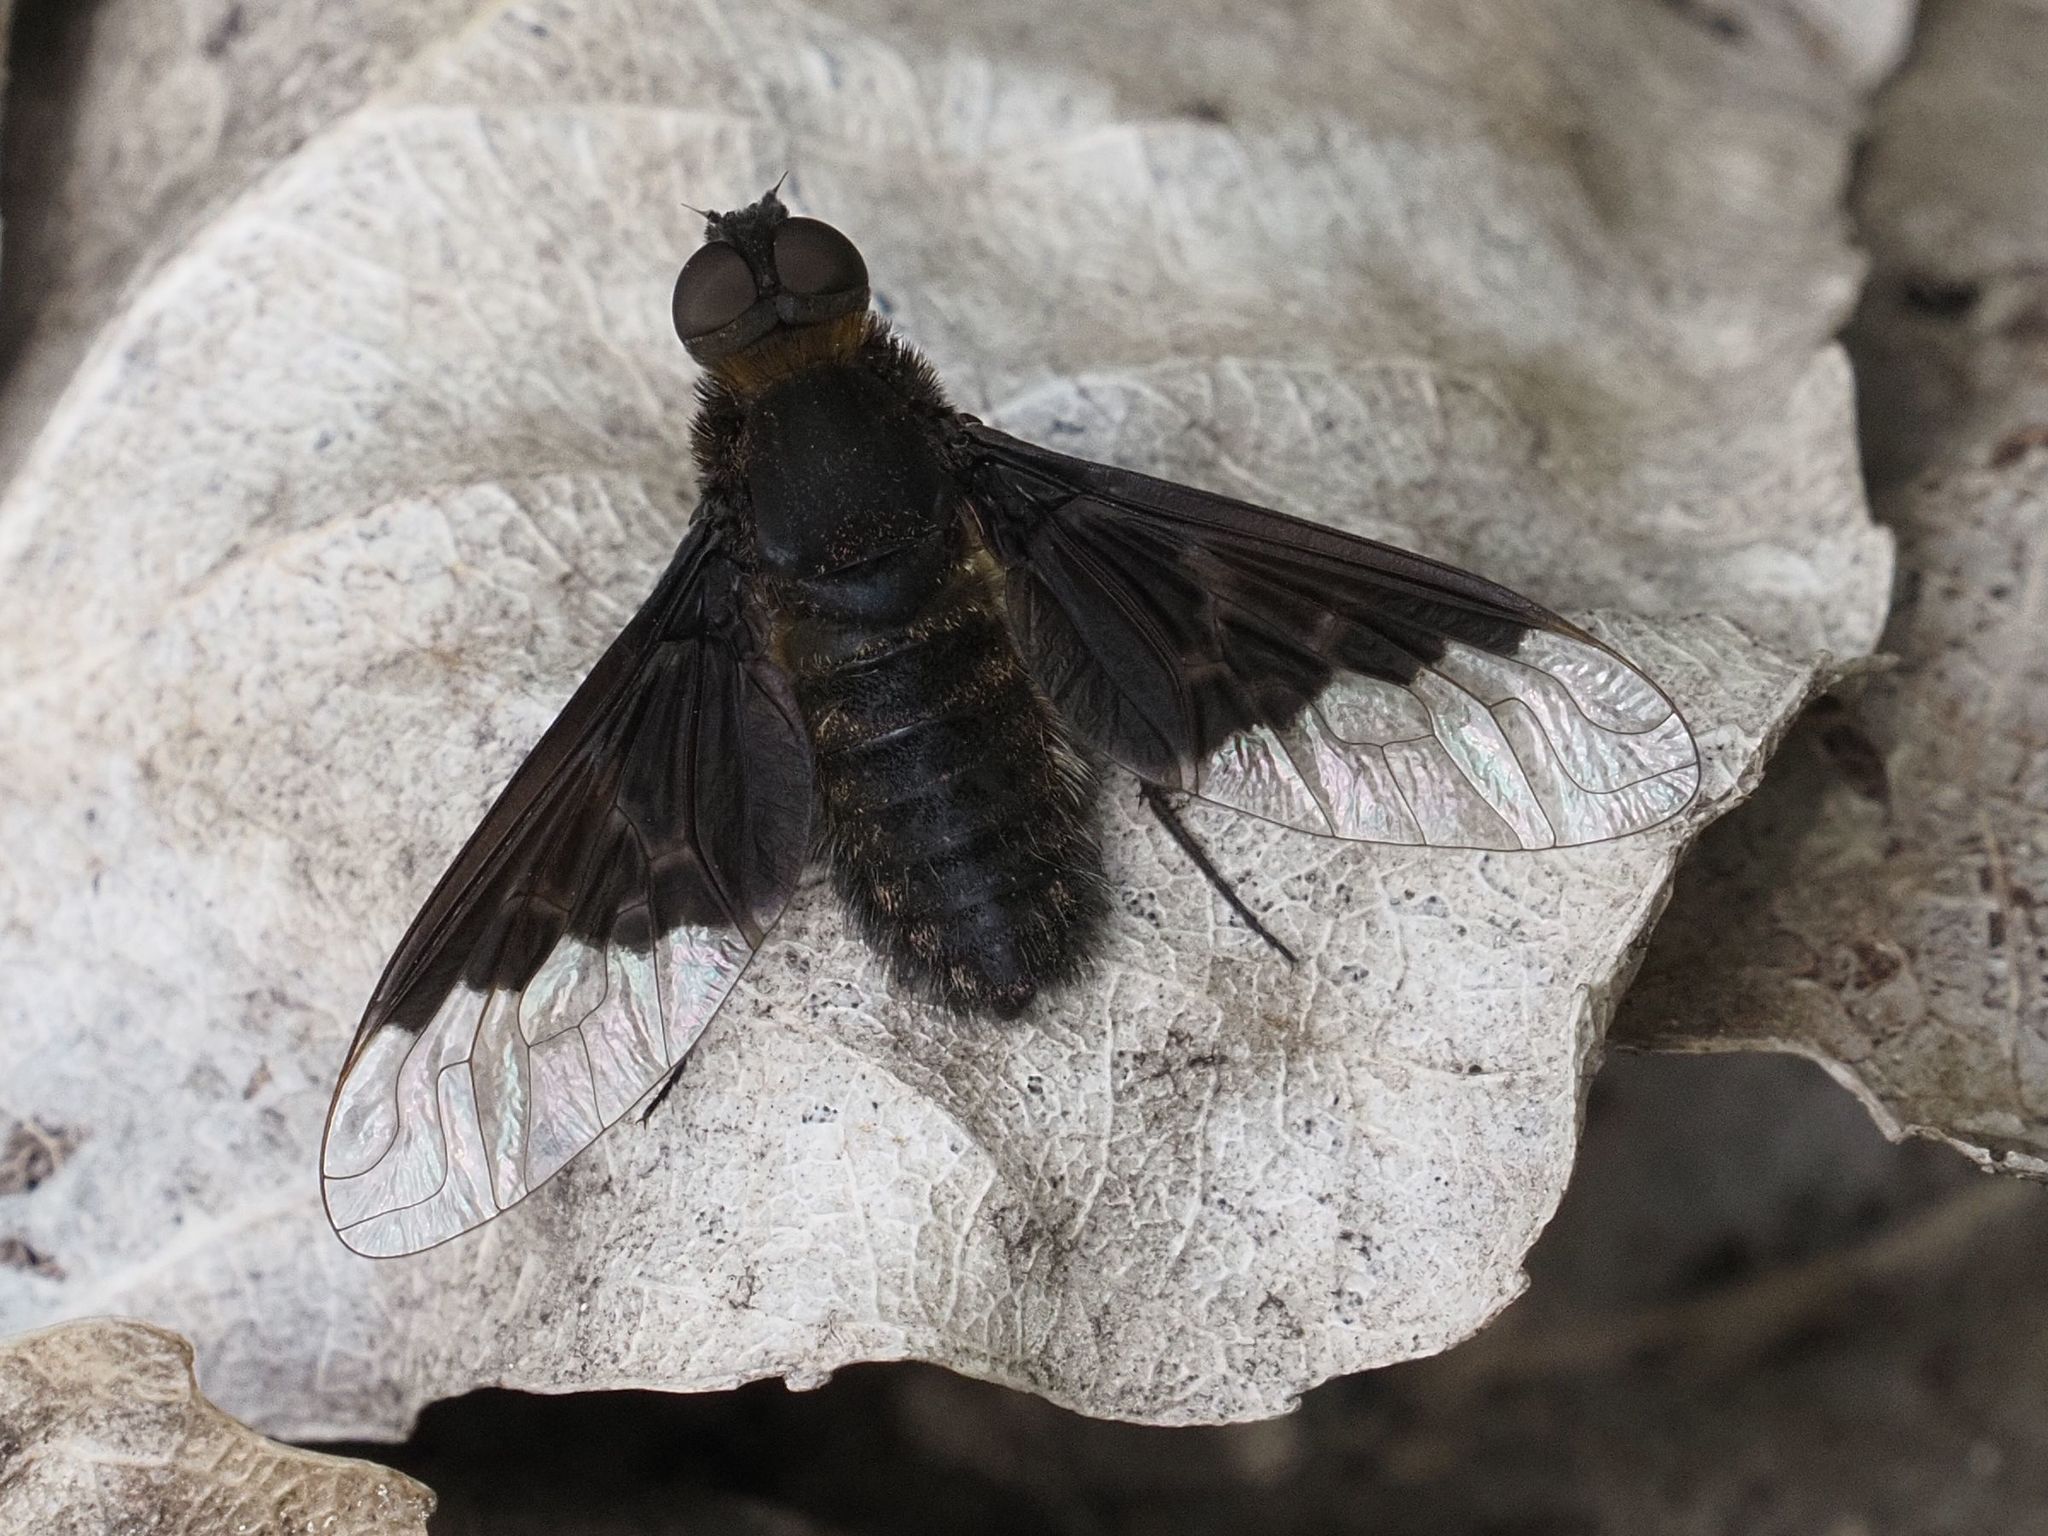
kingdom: Animalia
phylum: Arthropoda
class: Insecta
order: Diptera
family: Bombyliidae
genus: Hemipenthes
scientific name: Hemipenthes morio
